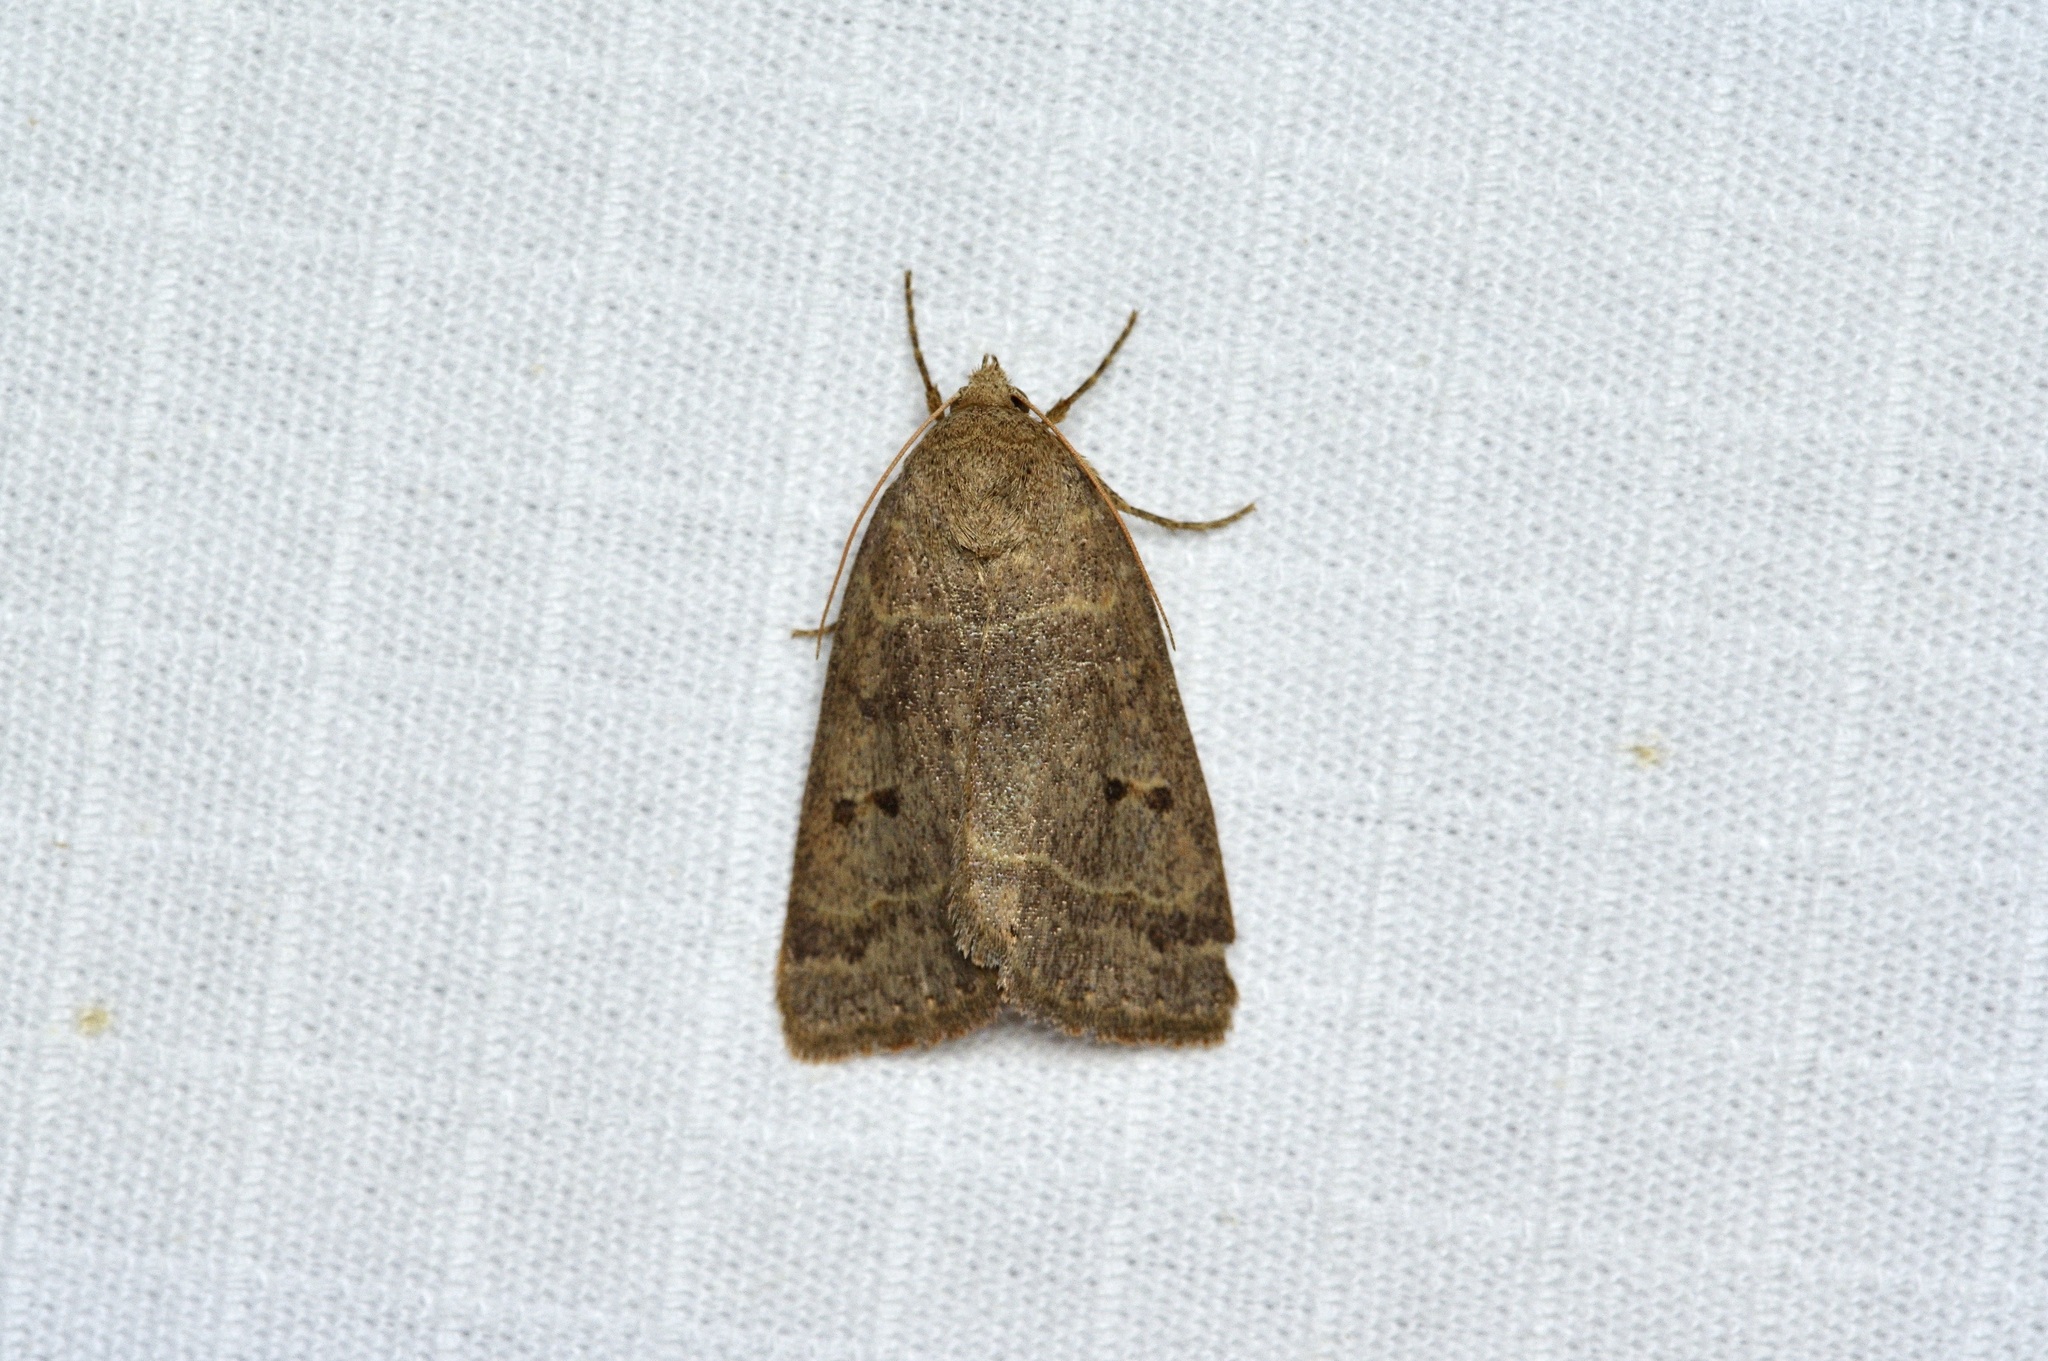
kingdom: Animalia
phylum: Arthropoda
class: Insecta
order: Lepidoptera
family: Erebidae
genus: Phoberia
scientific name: Phoberia atomaris
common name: Common oak moth
